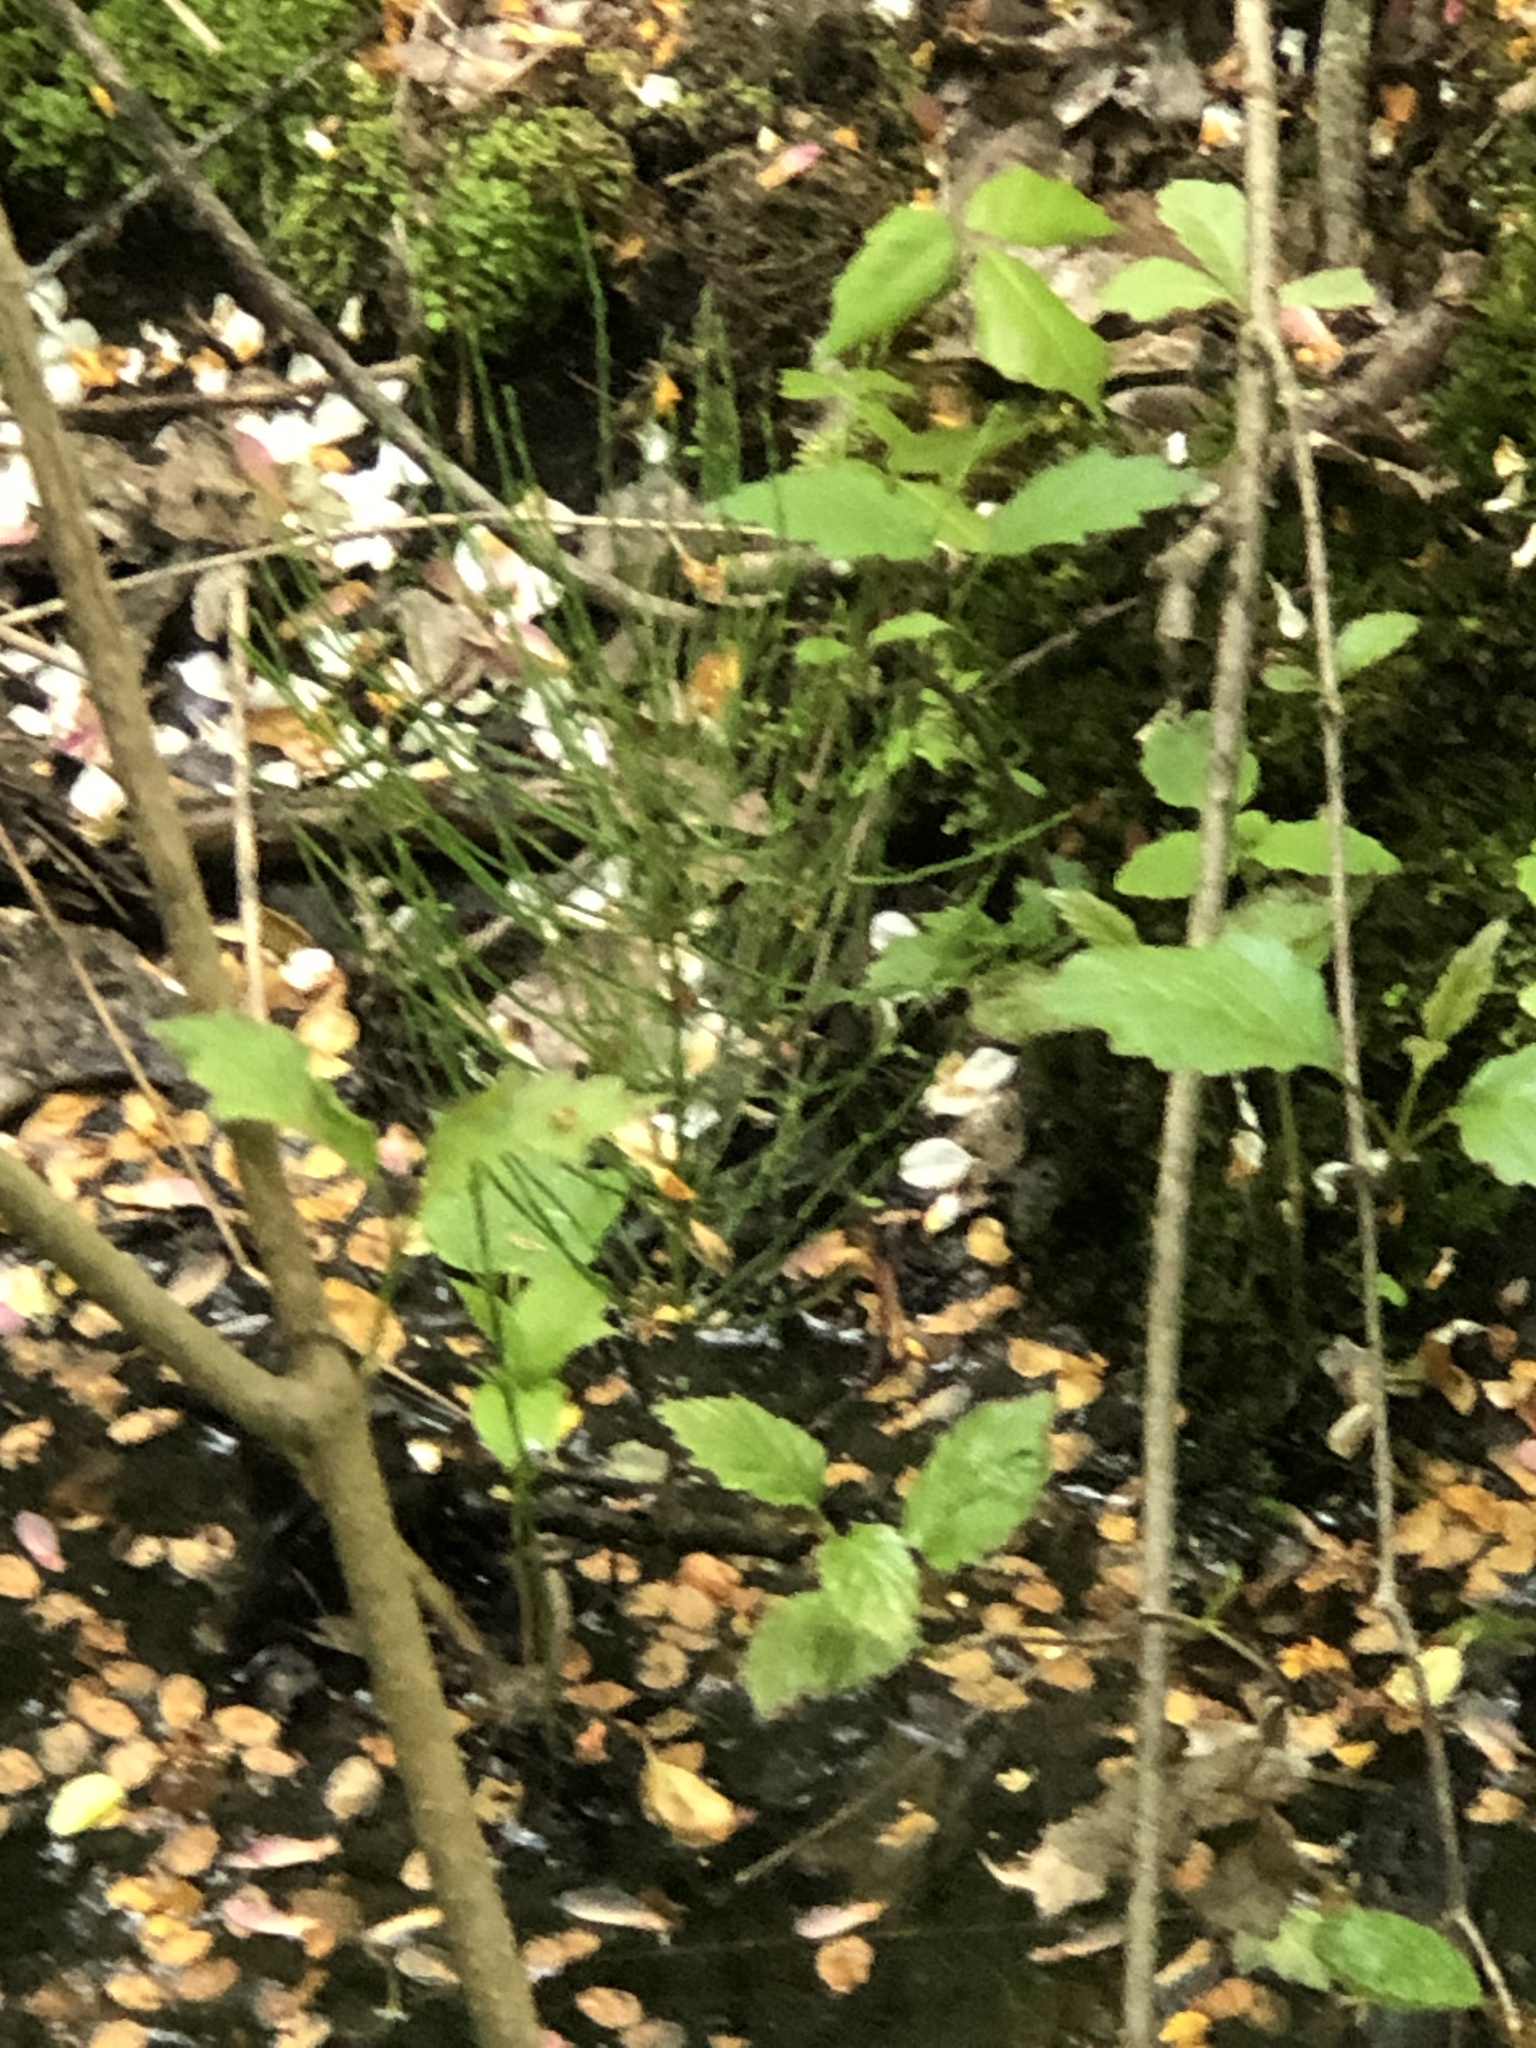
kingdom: Plantae
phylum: Tracheophyta
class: Polypodiopsida
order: Equisetales
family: Equisetaceae
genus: Equisetum
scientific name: Equisetum arvense
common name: Field horsetail
